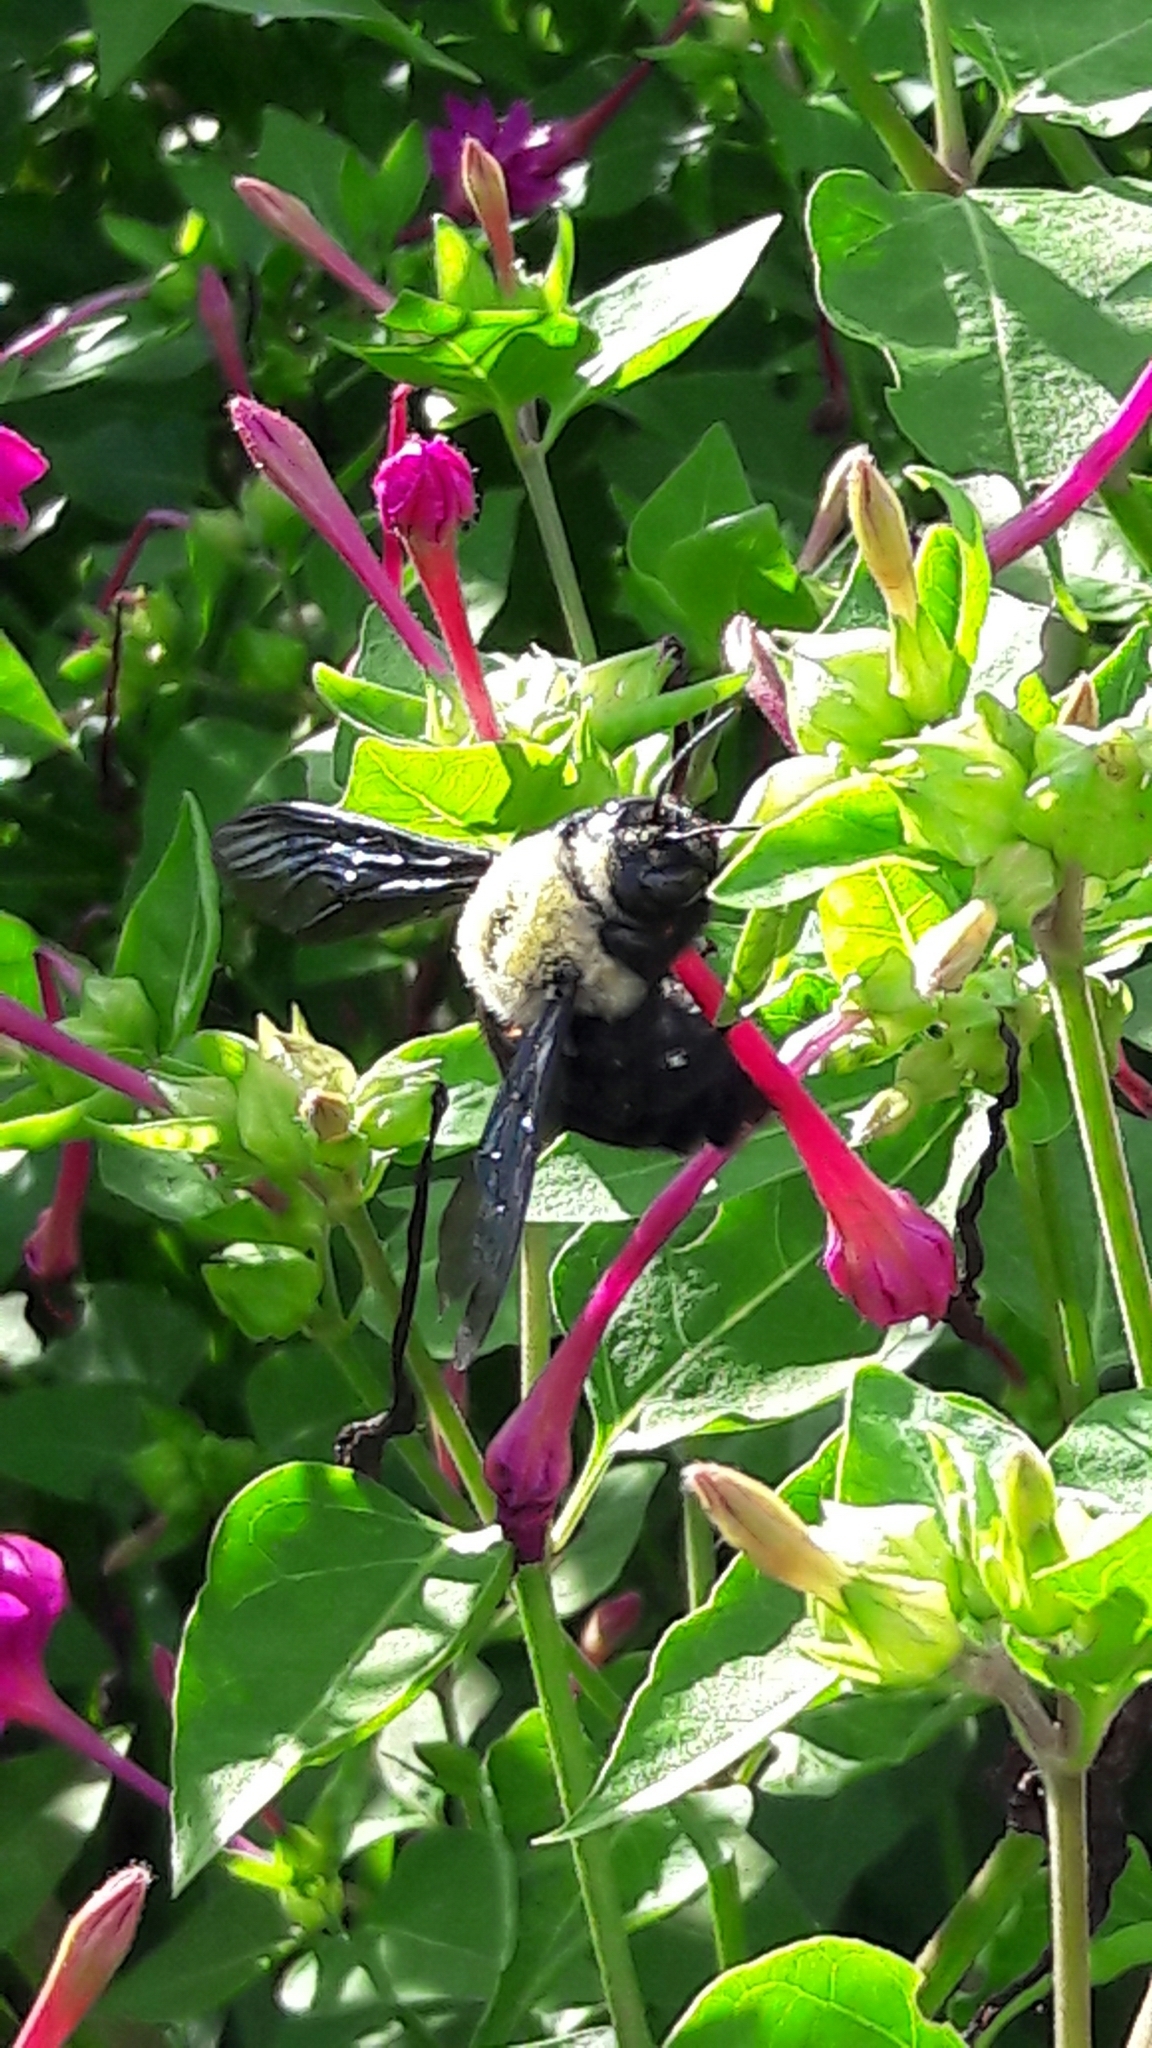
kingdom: Animalia
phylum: Arthropoda
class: Insecta
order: Hymenoptera
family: Apidae
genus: Xylocopa
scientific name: Xylocopa grisescens
